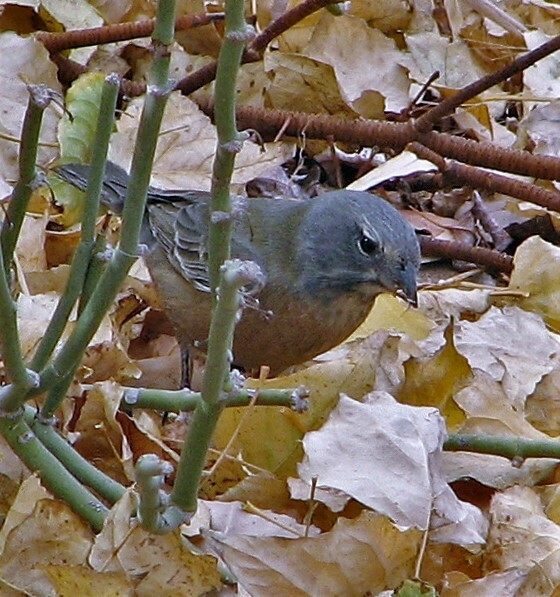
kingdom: Animalia
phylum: Chordata
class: Aves
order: Passeriformes
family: Thraupidae
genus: Phrygilus
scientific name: Phrygilus gayi
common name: Grey-hooded sierra finch
